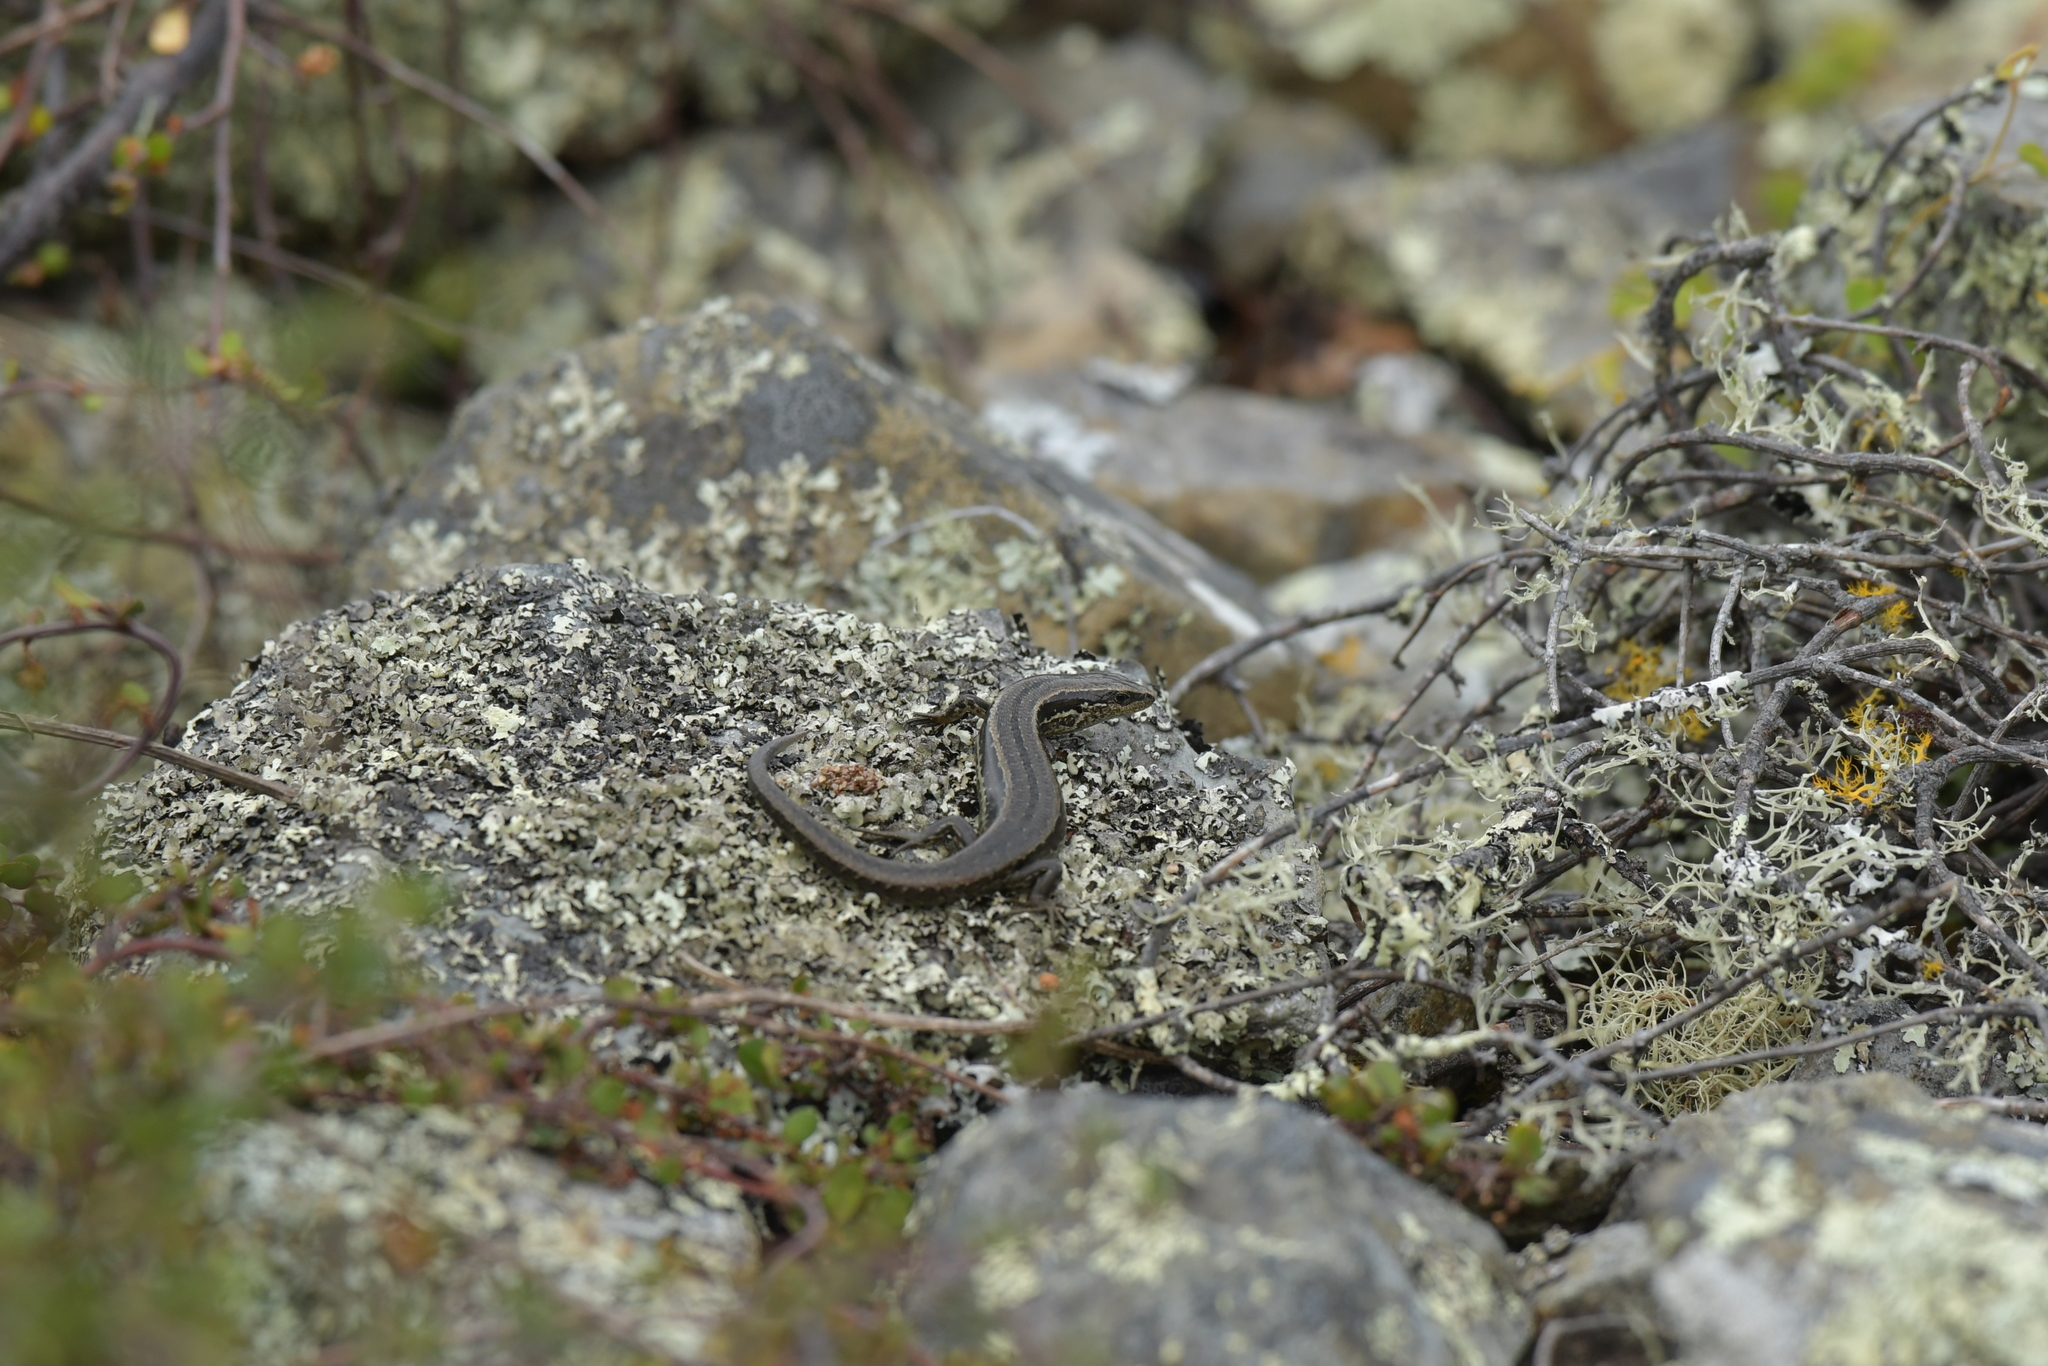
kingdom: Animalia
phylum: Chordata
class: Squamata
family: Scincidae
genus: Oligosoma
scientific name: Oligosoma polychroma
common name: Common new zealand skink
